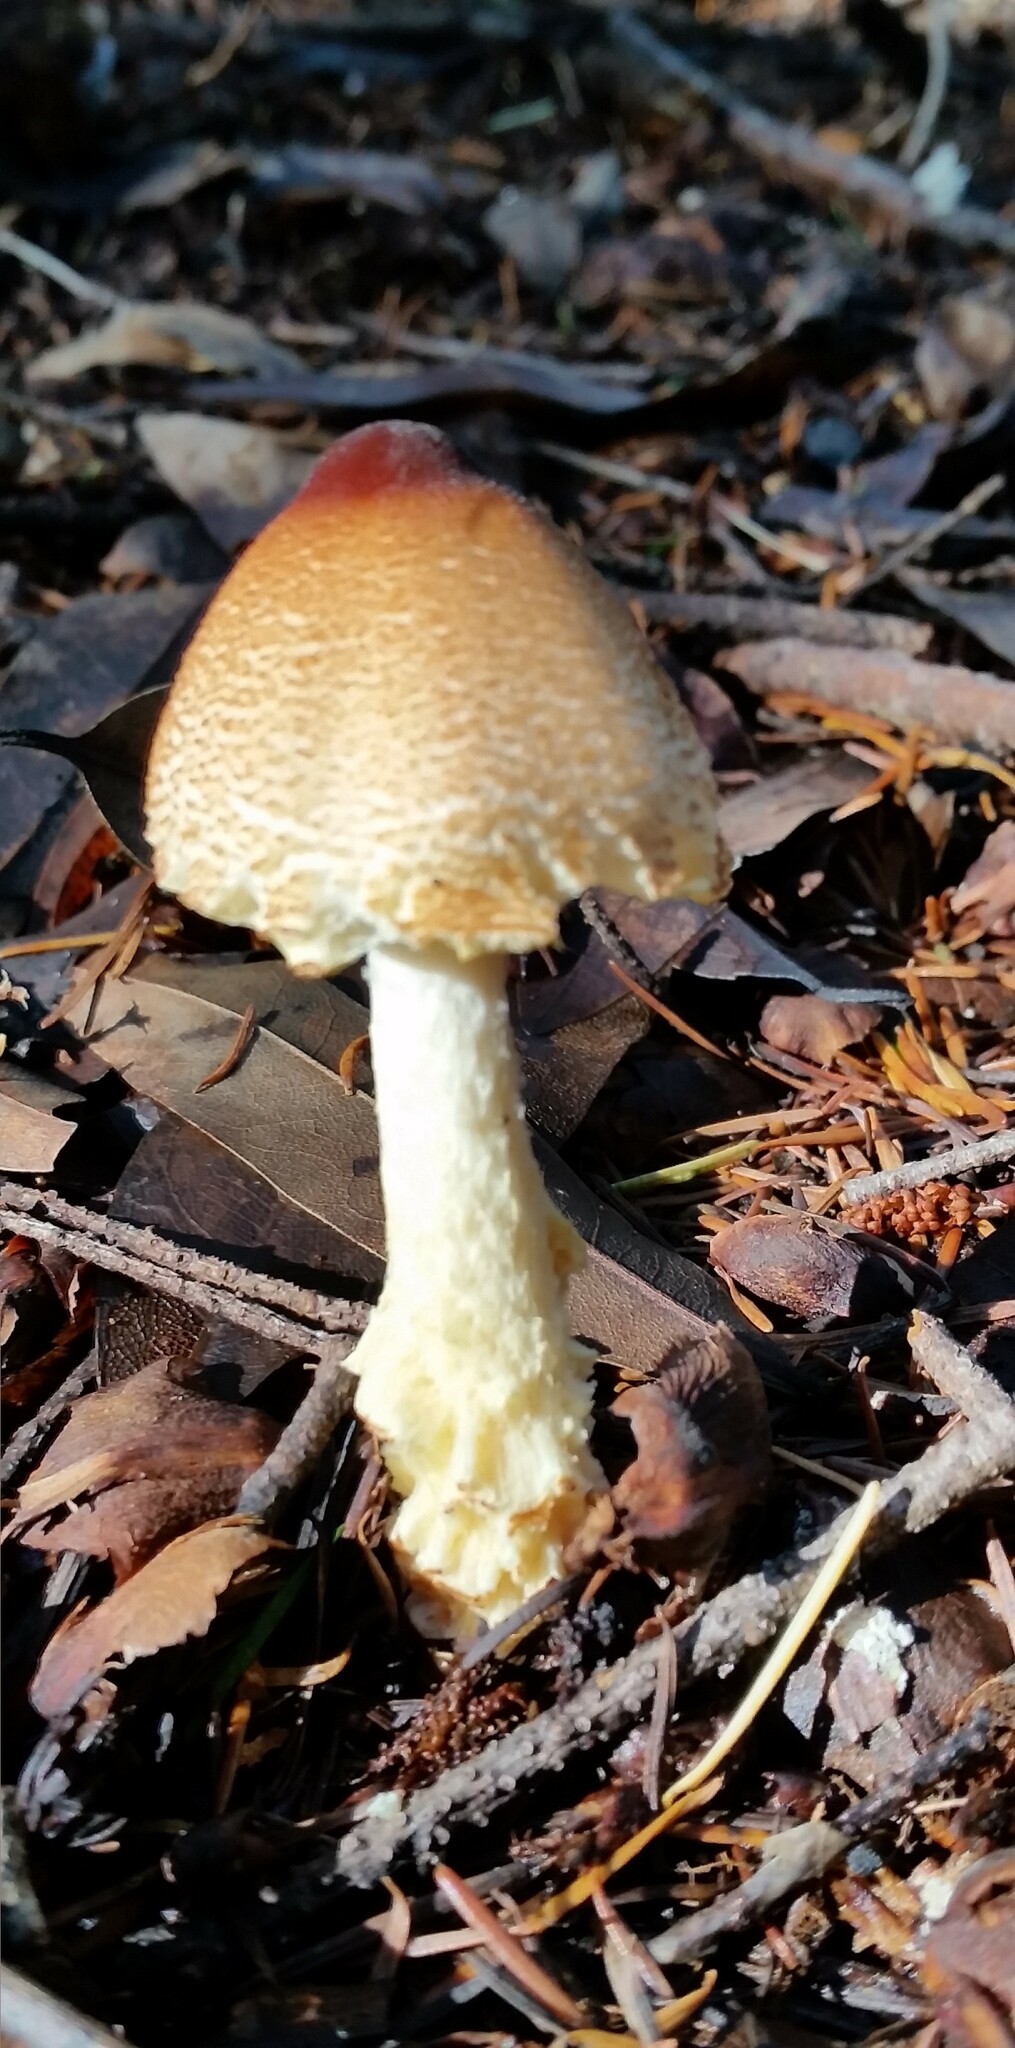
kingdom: Fungi
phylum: Basidiomycota
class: Agaricomycetes
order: Agaricales
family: Agaricaceae
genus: Lepiota
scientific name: Lepiota magnispora
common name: Yellowfoot dapperling
